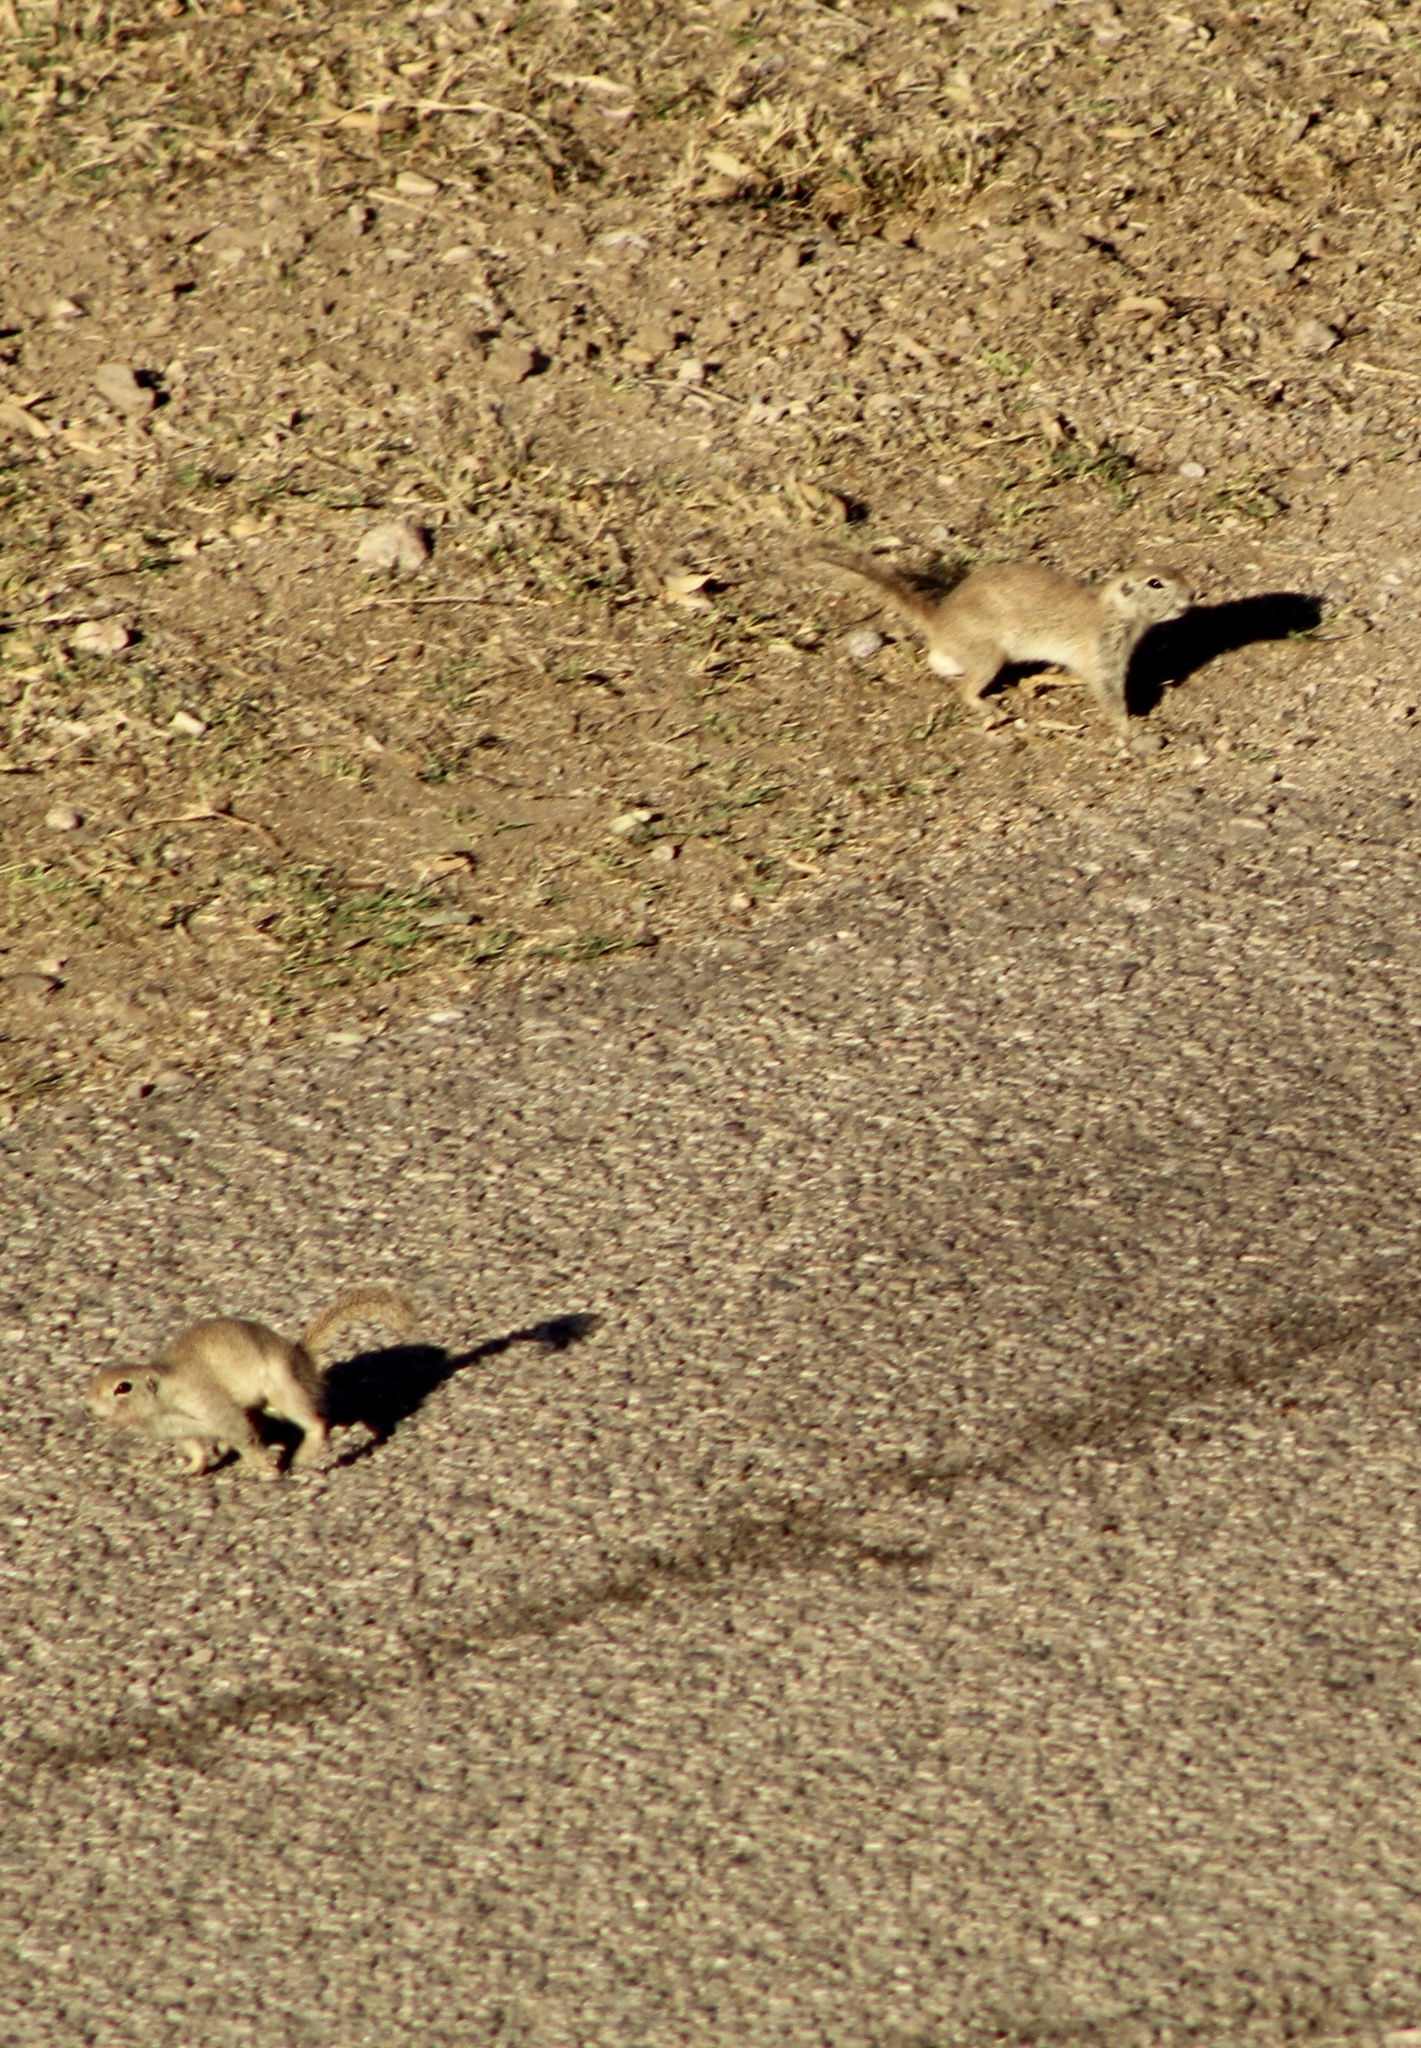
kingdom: Animalia
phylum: Chordata
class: Mammalia
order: Rodentia
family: Sciuridae
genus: Xerospermophilus
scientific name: Xerospermophilus tereticaudus
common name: Round-tailed ground squirrel
